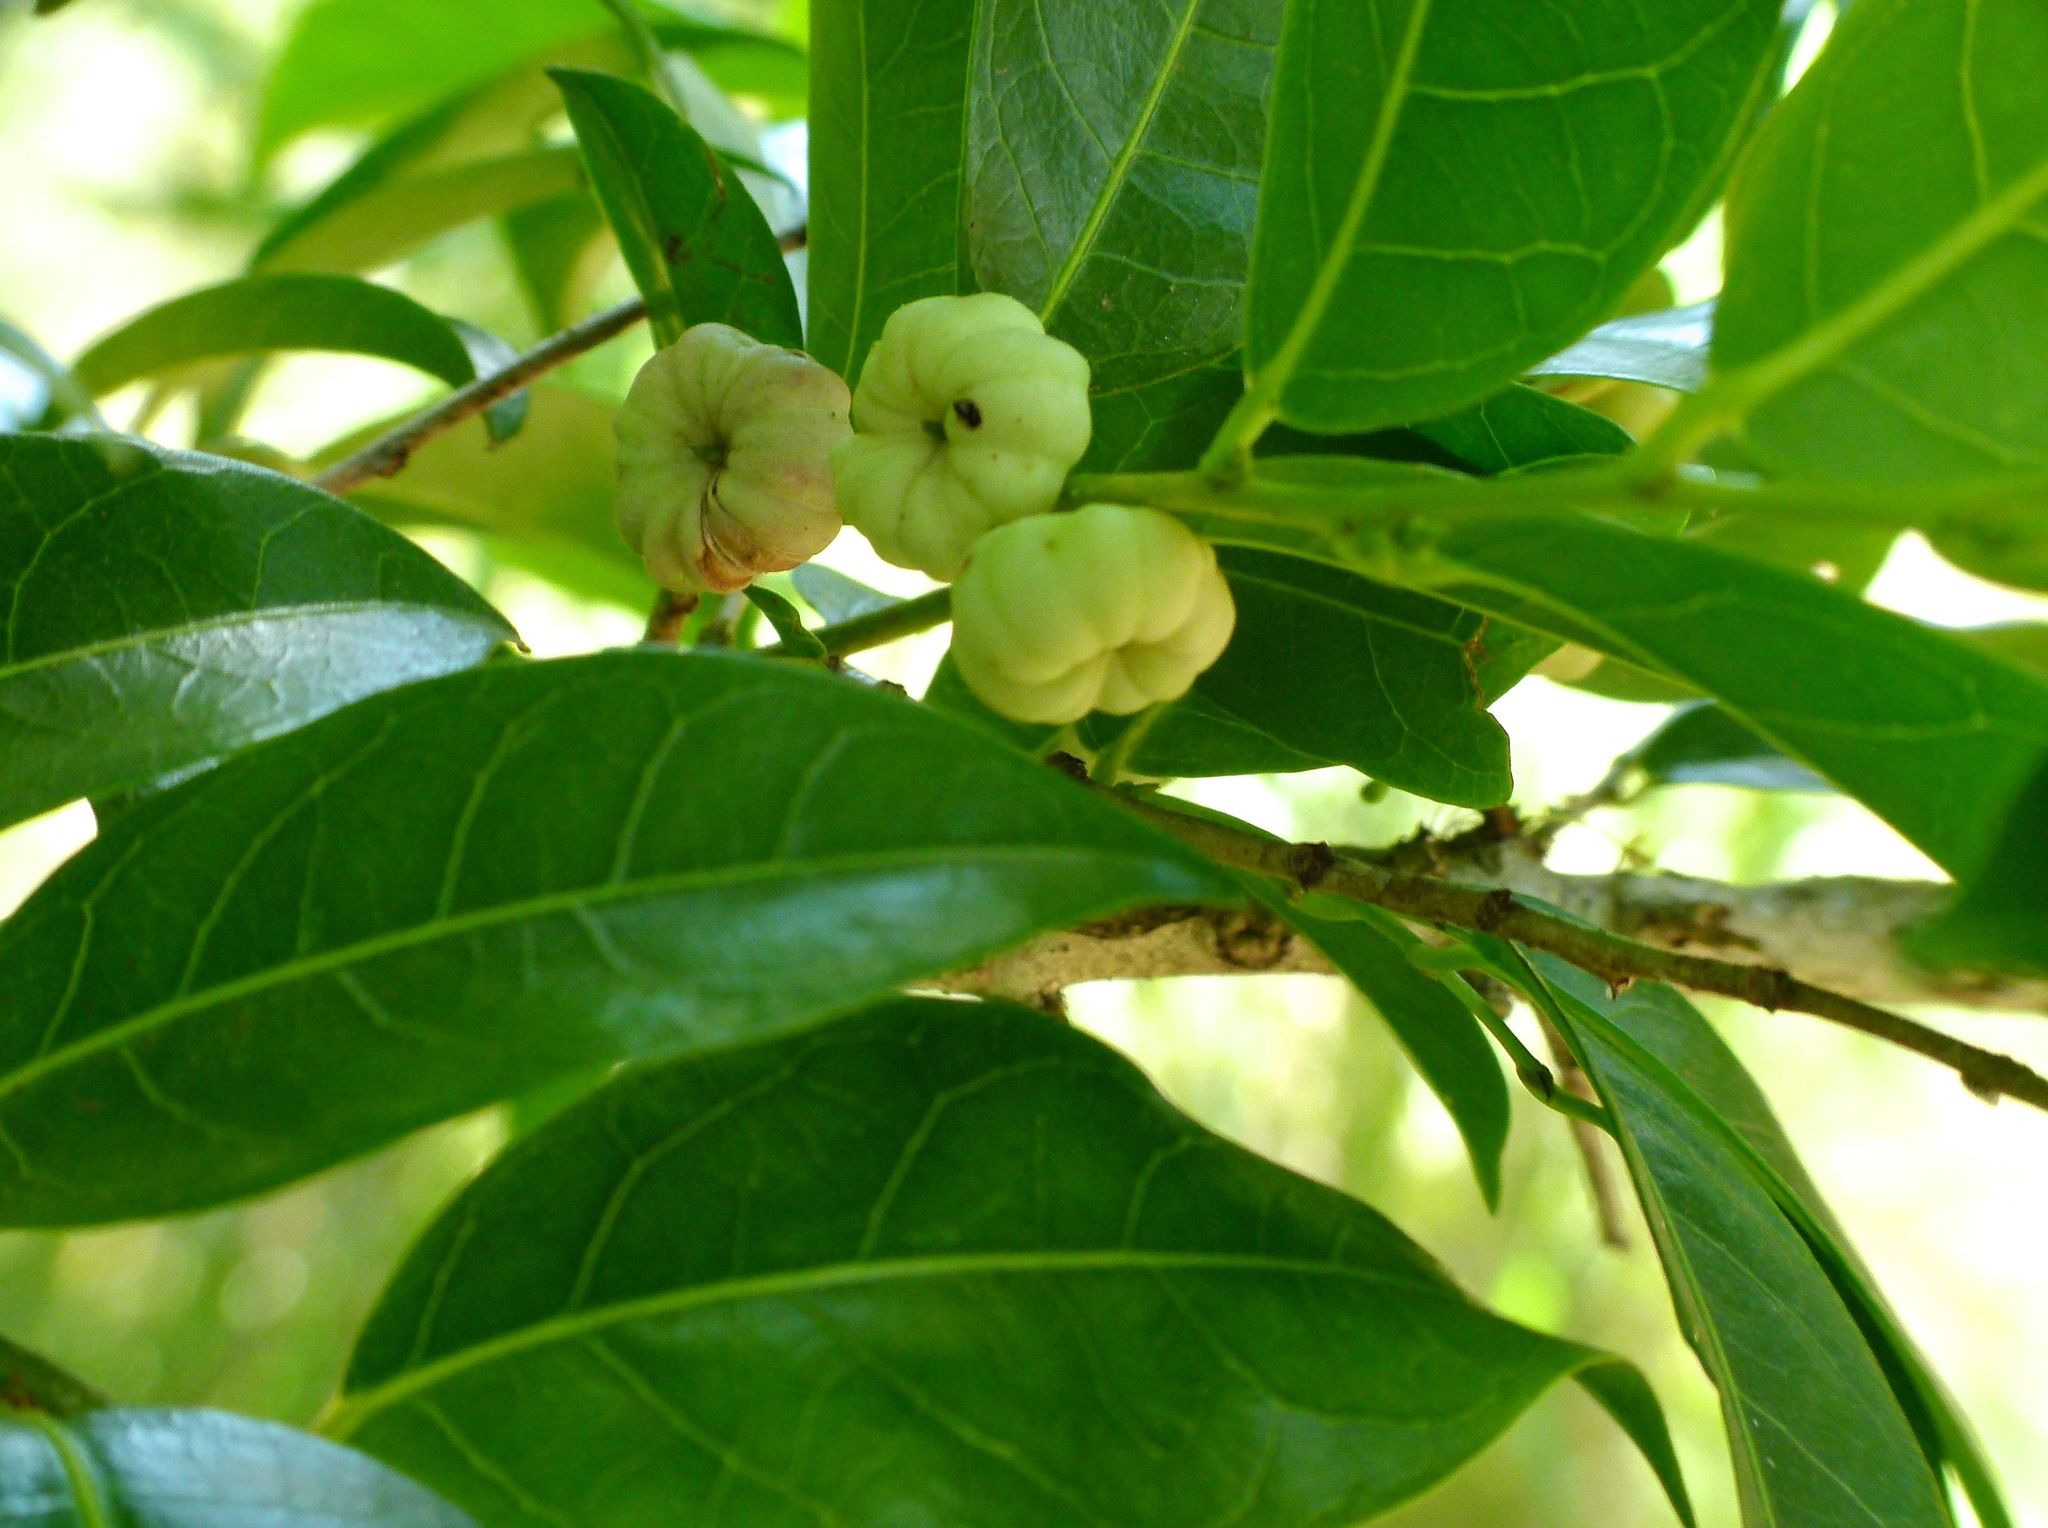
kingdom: Plantae
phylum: Tracheophyta
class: Magnoliopsida
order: Malpighiales
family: Phyllanthaceae
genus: Glochidion
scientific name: Glochidion ferdinandi
